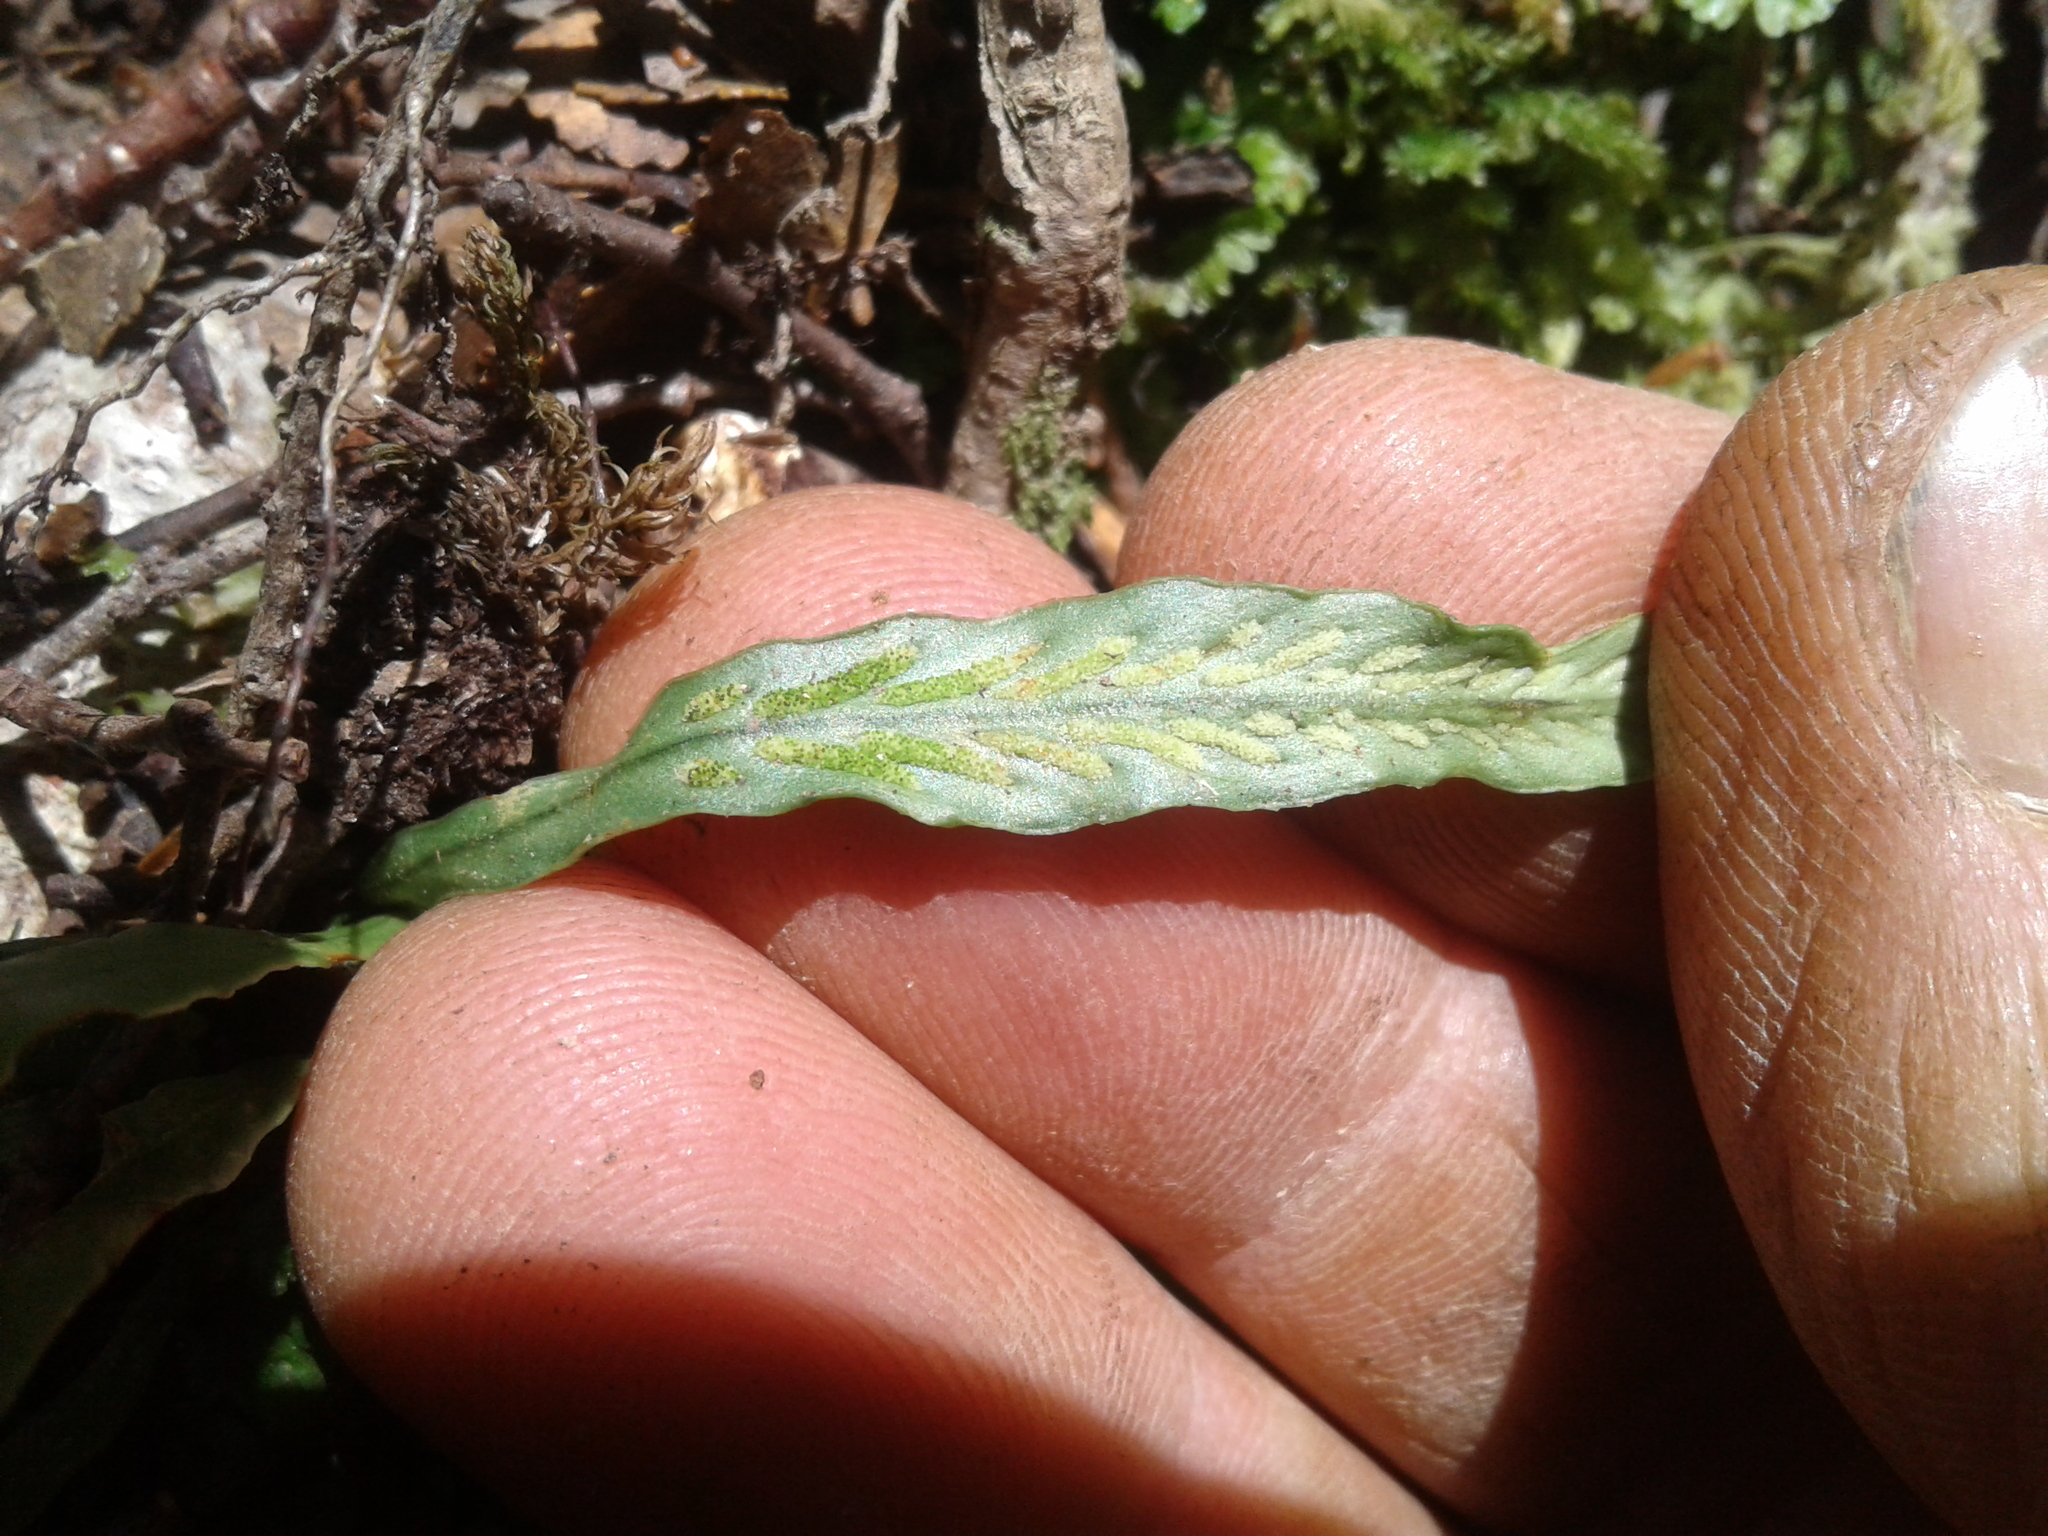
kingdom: Plantae
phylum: Tracheophyta
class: Polypodiopsida
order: Polypodiales
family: Polypodiaceae
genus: Notogrammitis
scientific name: Notogrammitis billardierei
